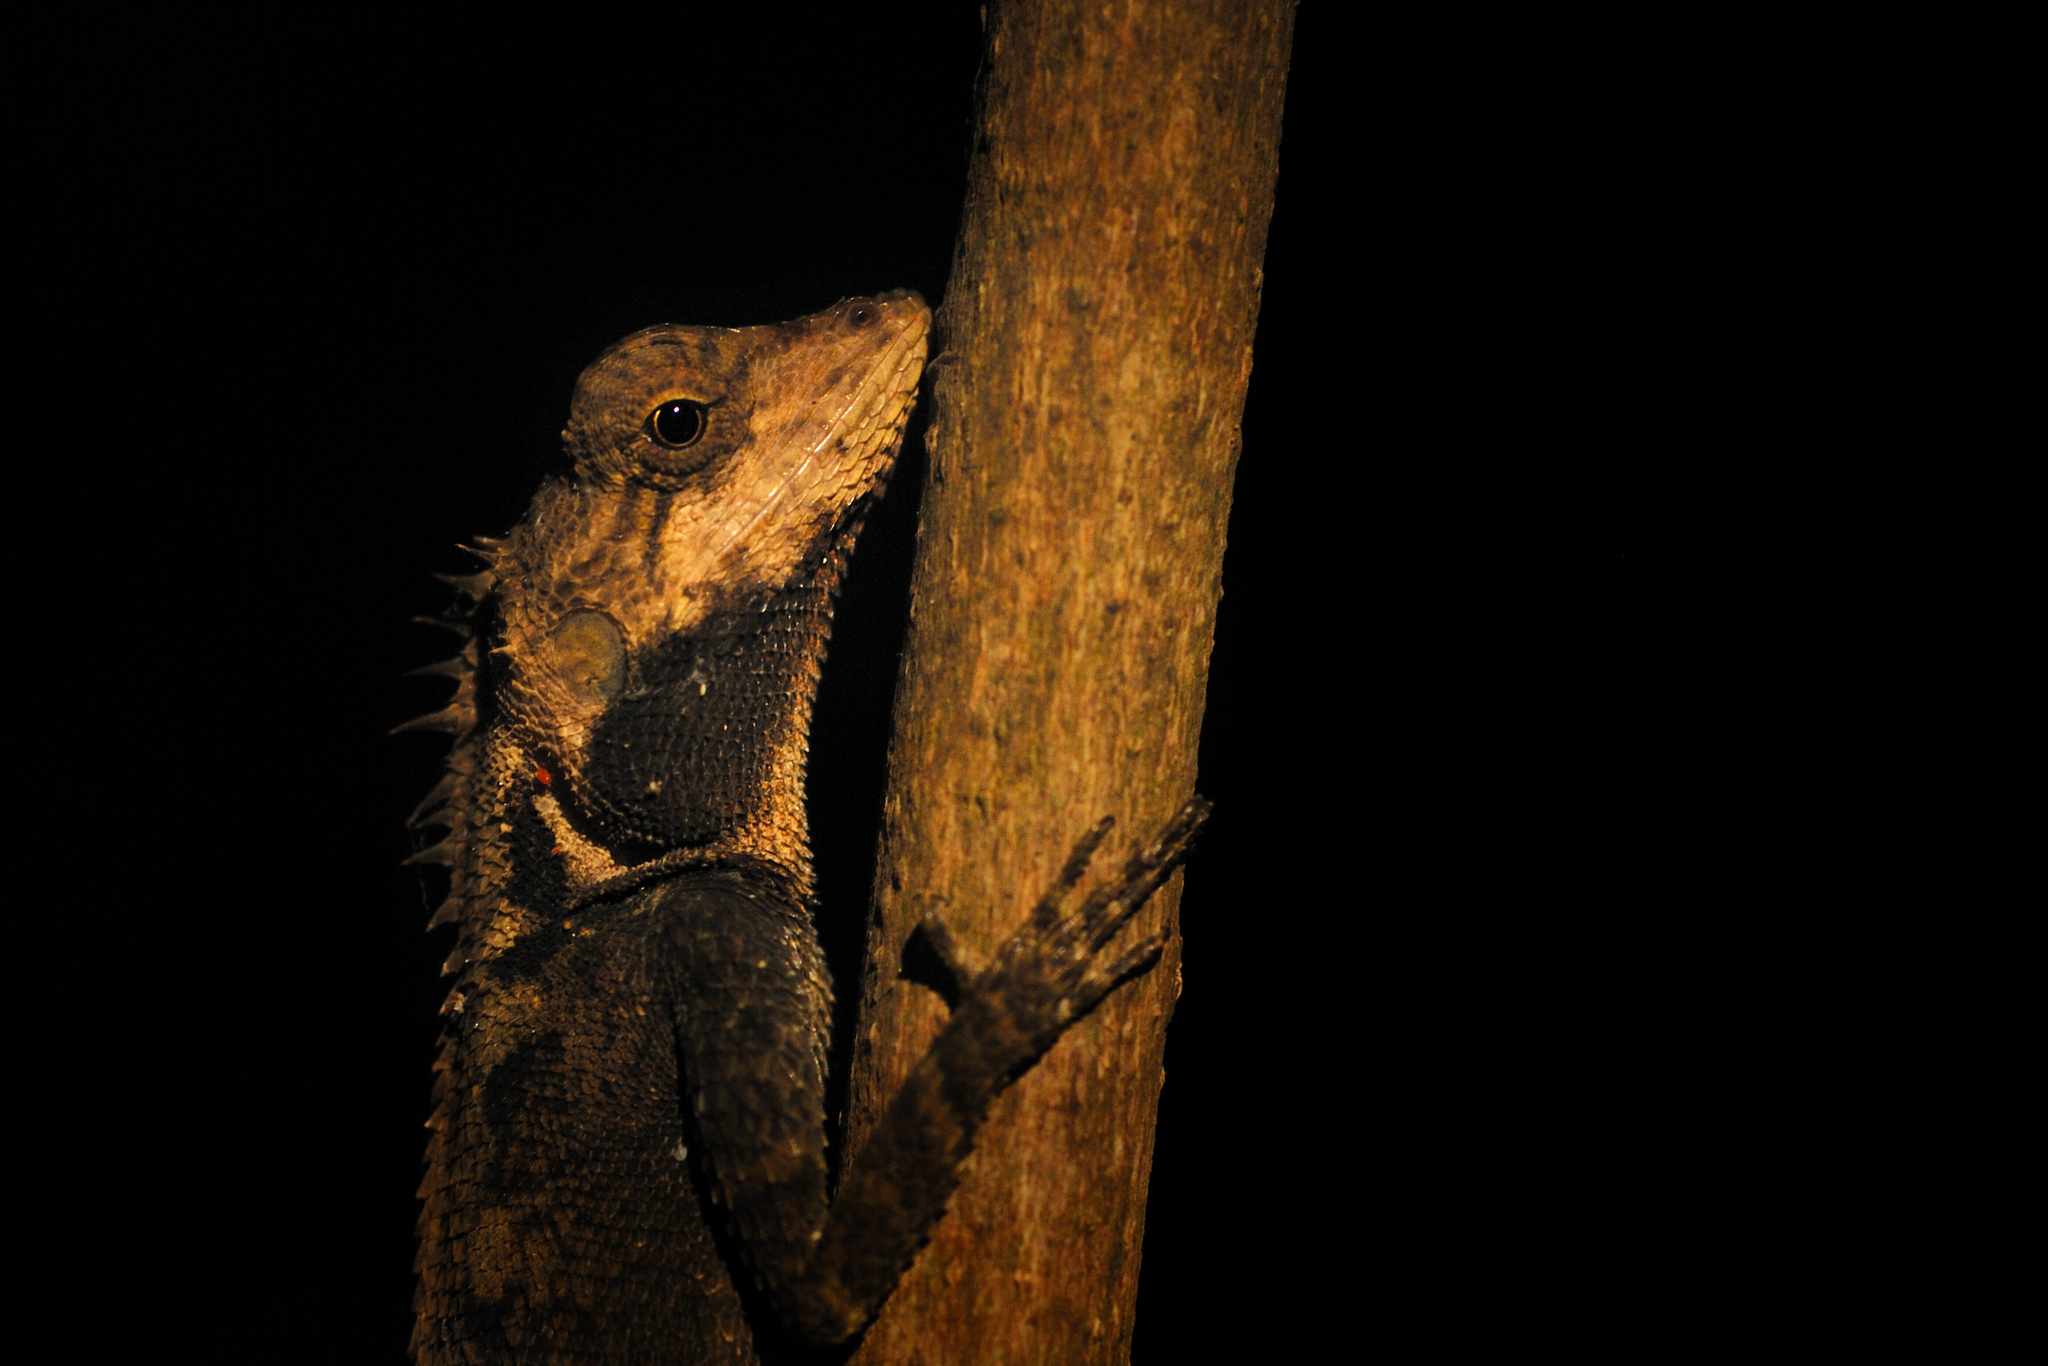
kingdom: Animalia
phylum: Chordata
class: Squamata
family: Agamidae
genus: Monilesaurus
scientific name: Monilesaurus rouxii
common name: Roux's forest lizard
